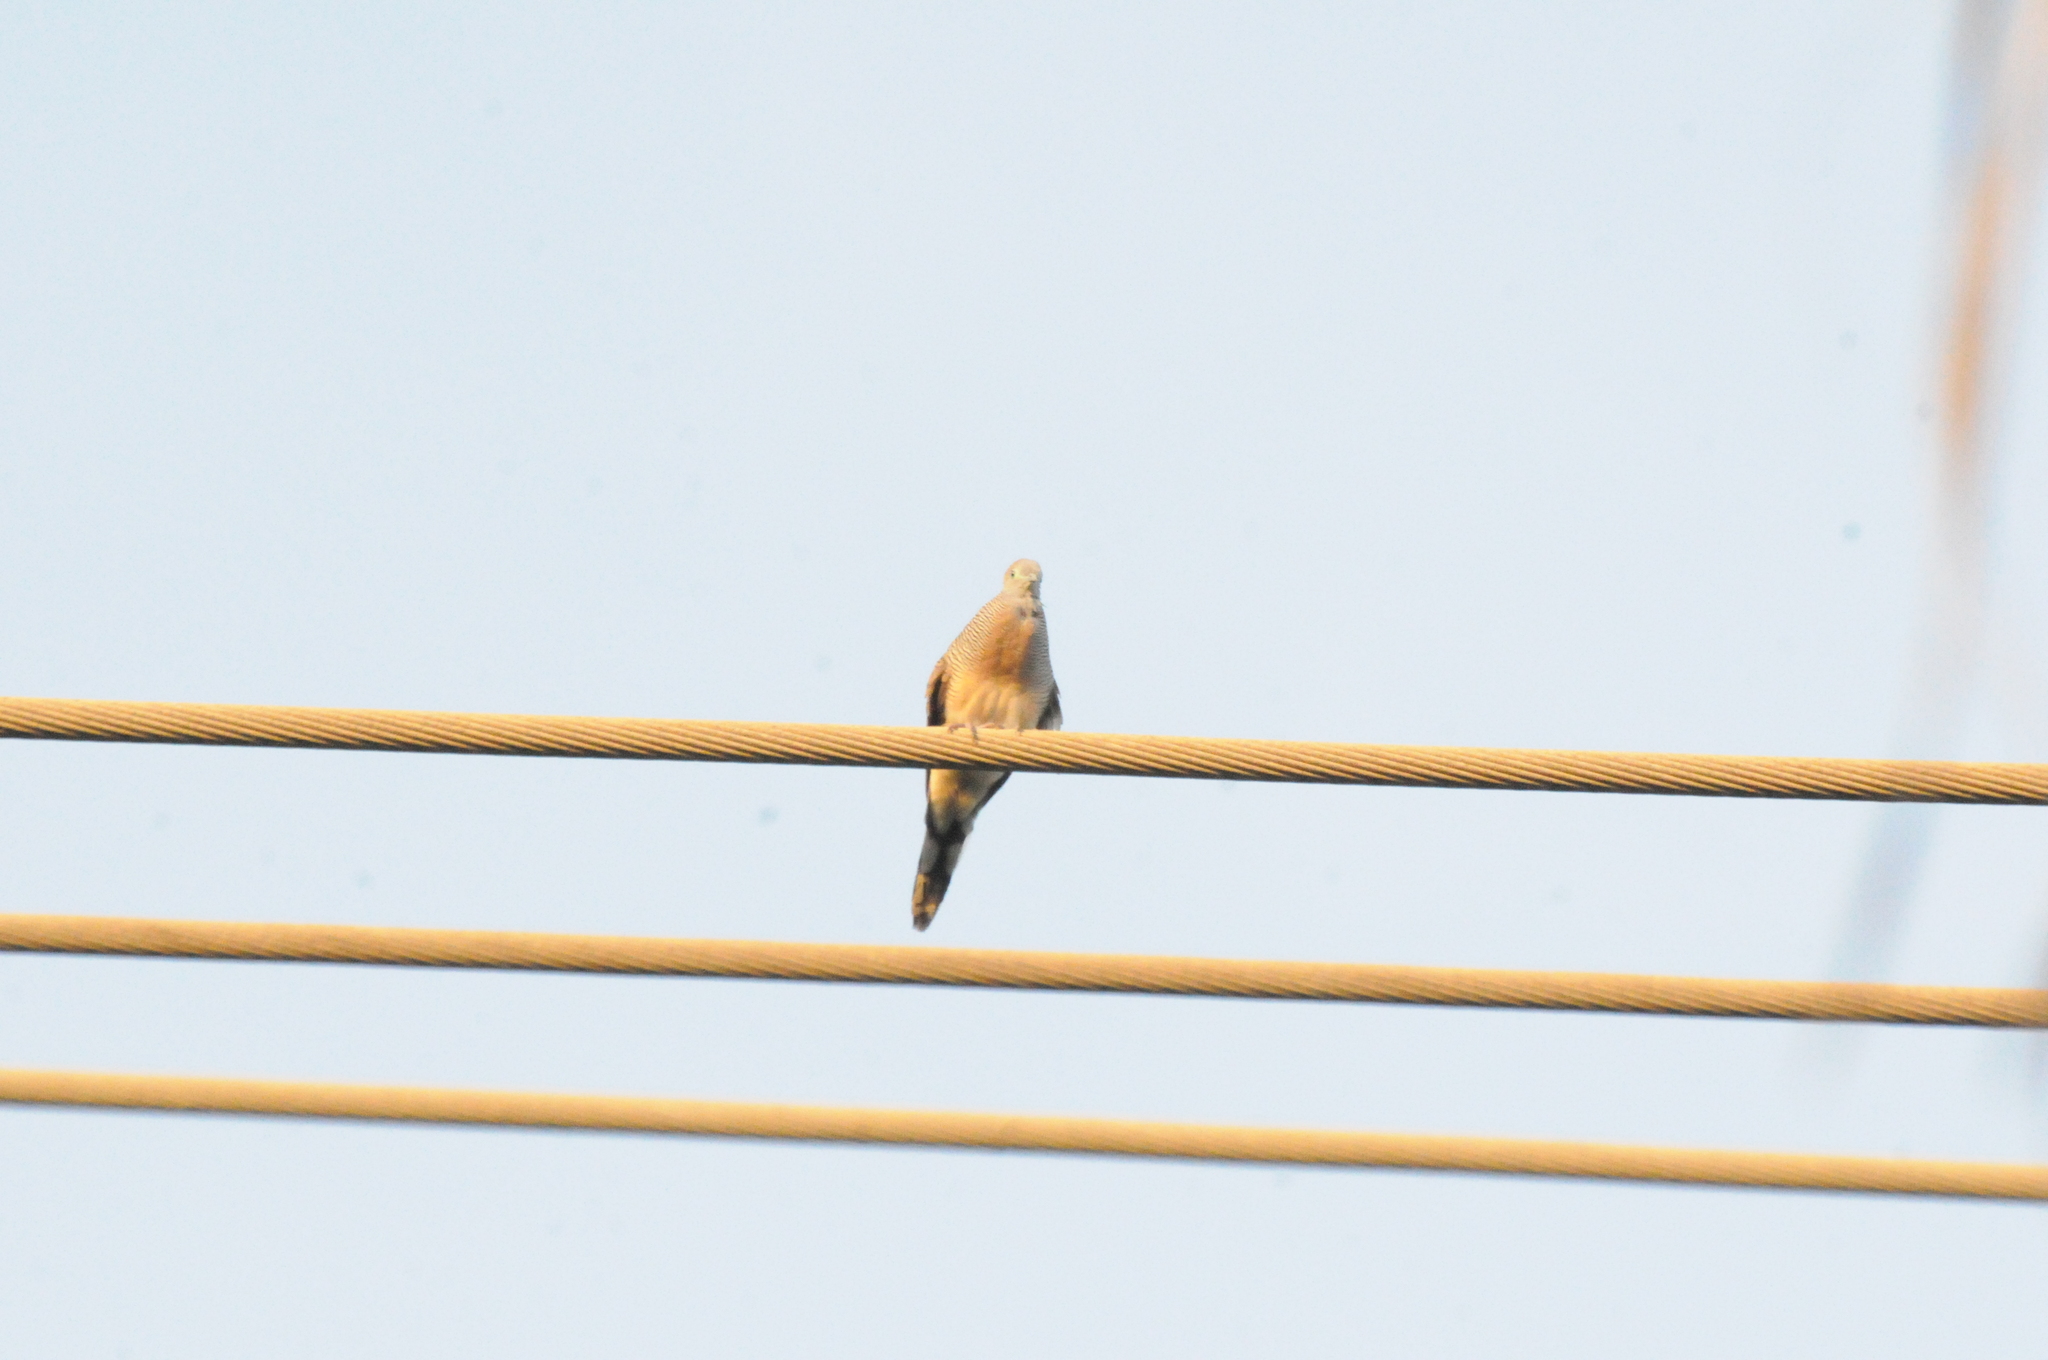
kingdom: Animalia
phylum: Chordata
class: Aves
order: Columbiformes
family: Columbidae
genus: Geopelia
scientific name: Geopelia striata
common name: Zebra dove
